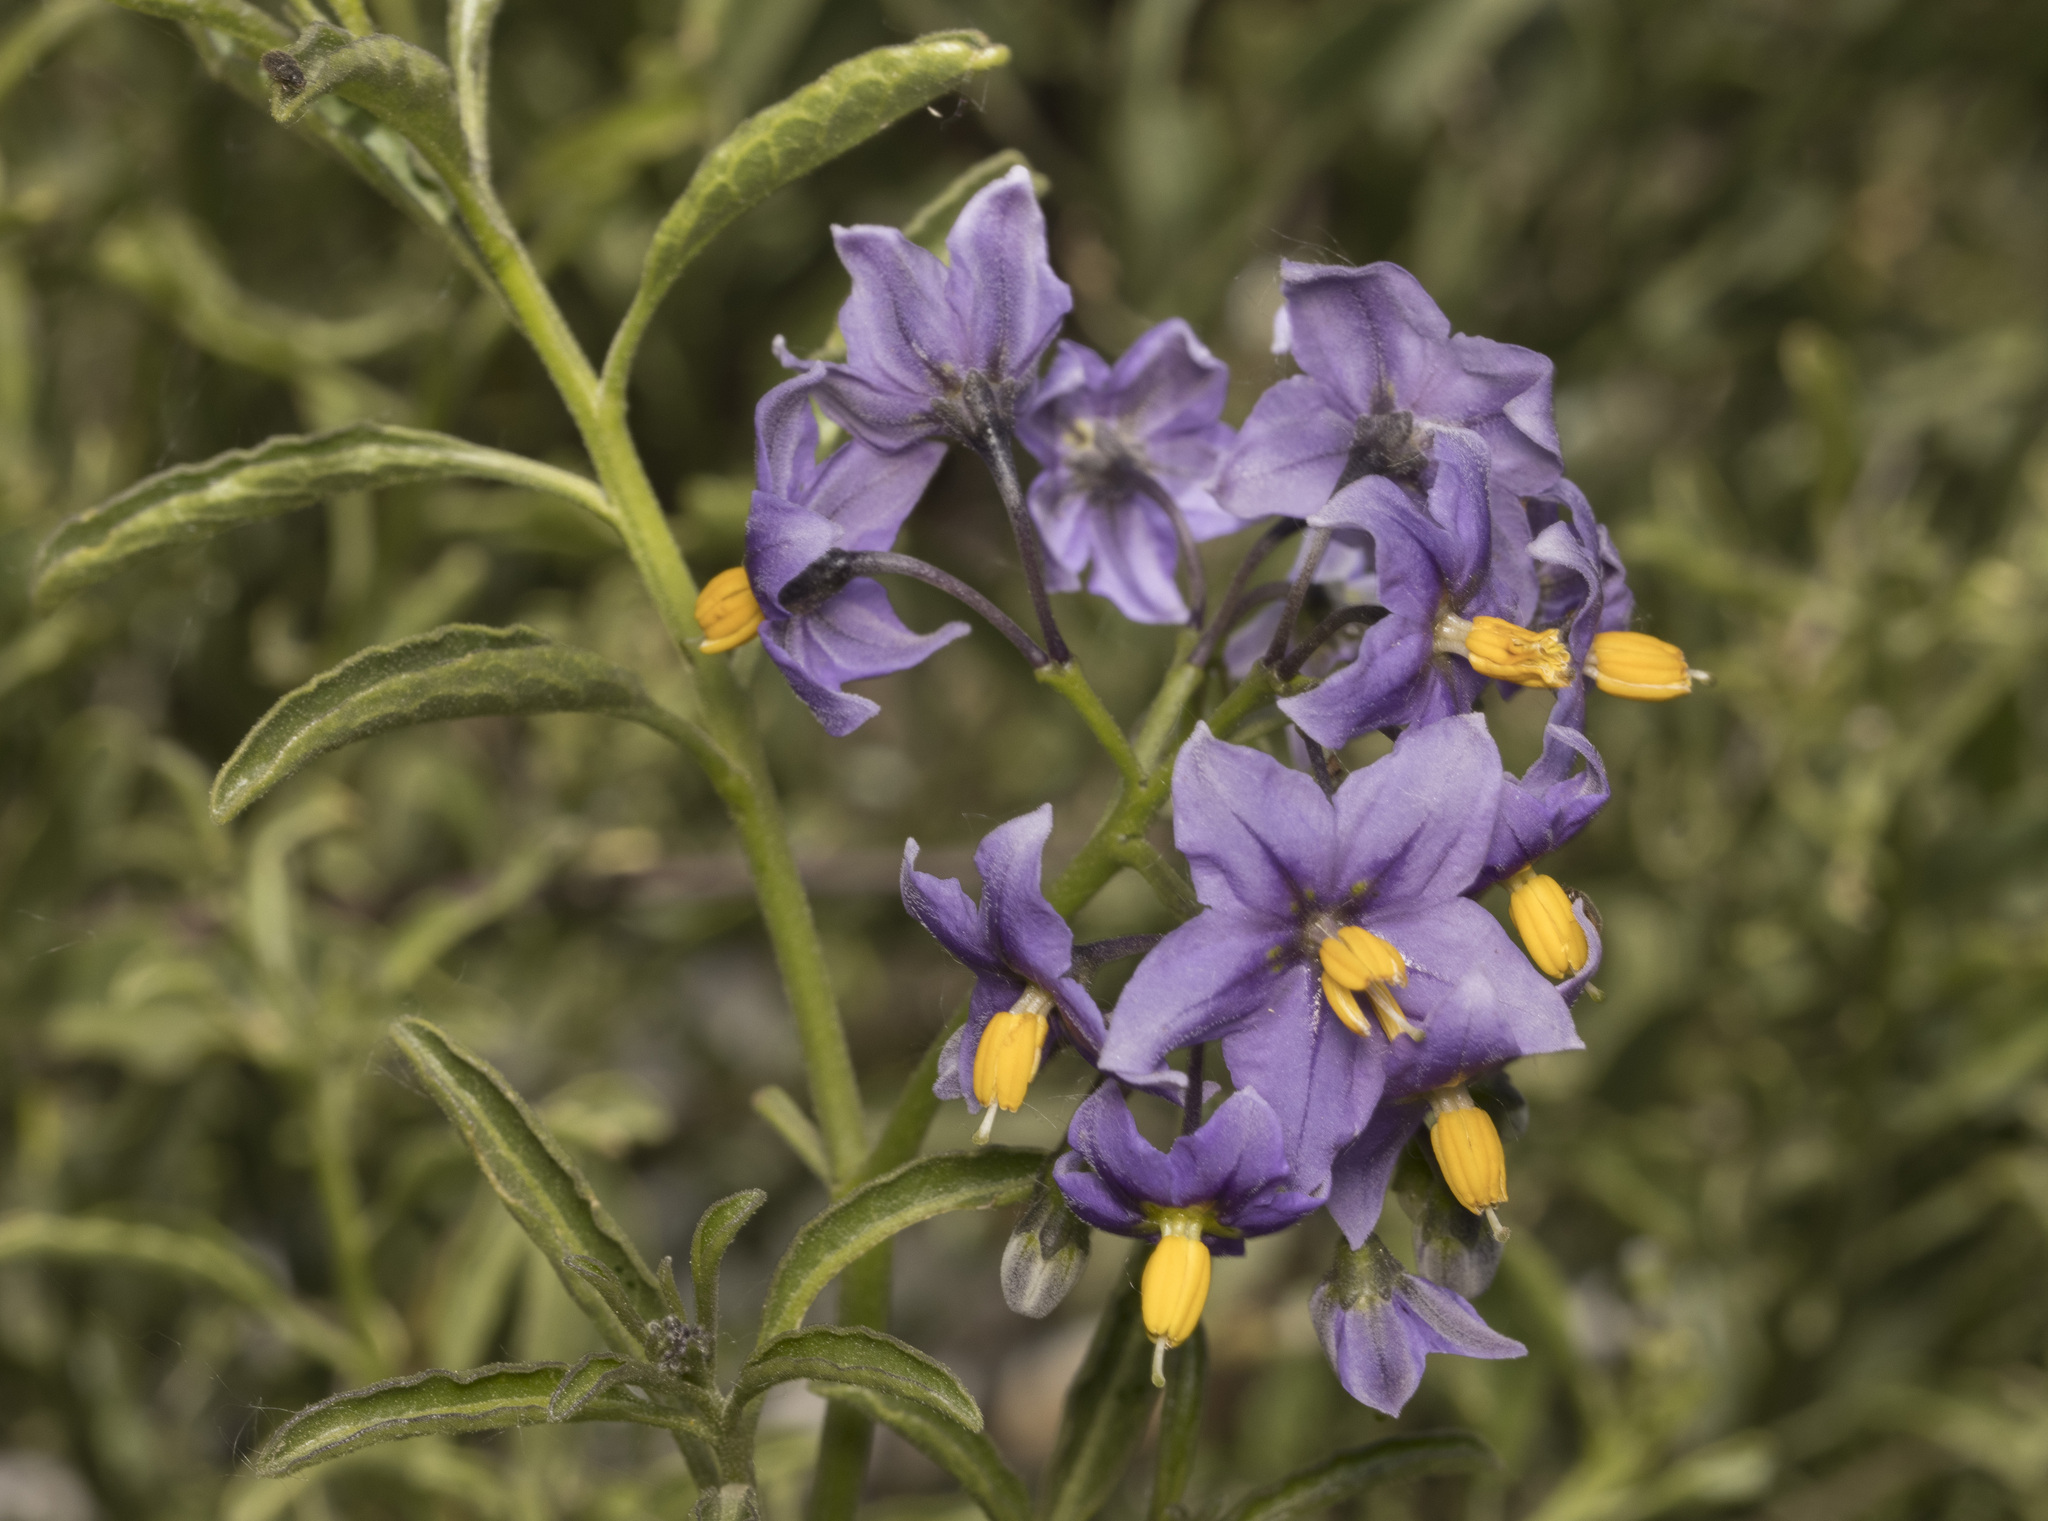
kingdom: Plantae
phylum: Tracheophyta
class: Magnoliopsida
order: Solanales
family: Solanaceae
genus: Solanum
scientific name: Solanum crispum
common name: Chilean nightshade
